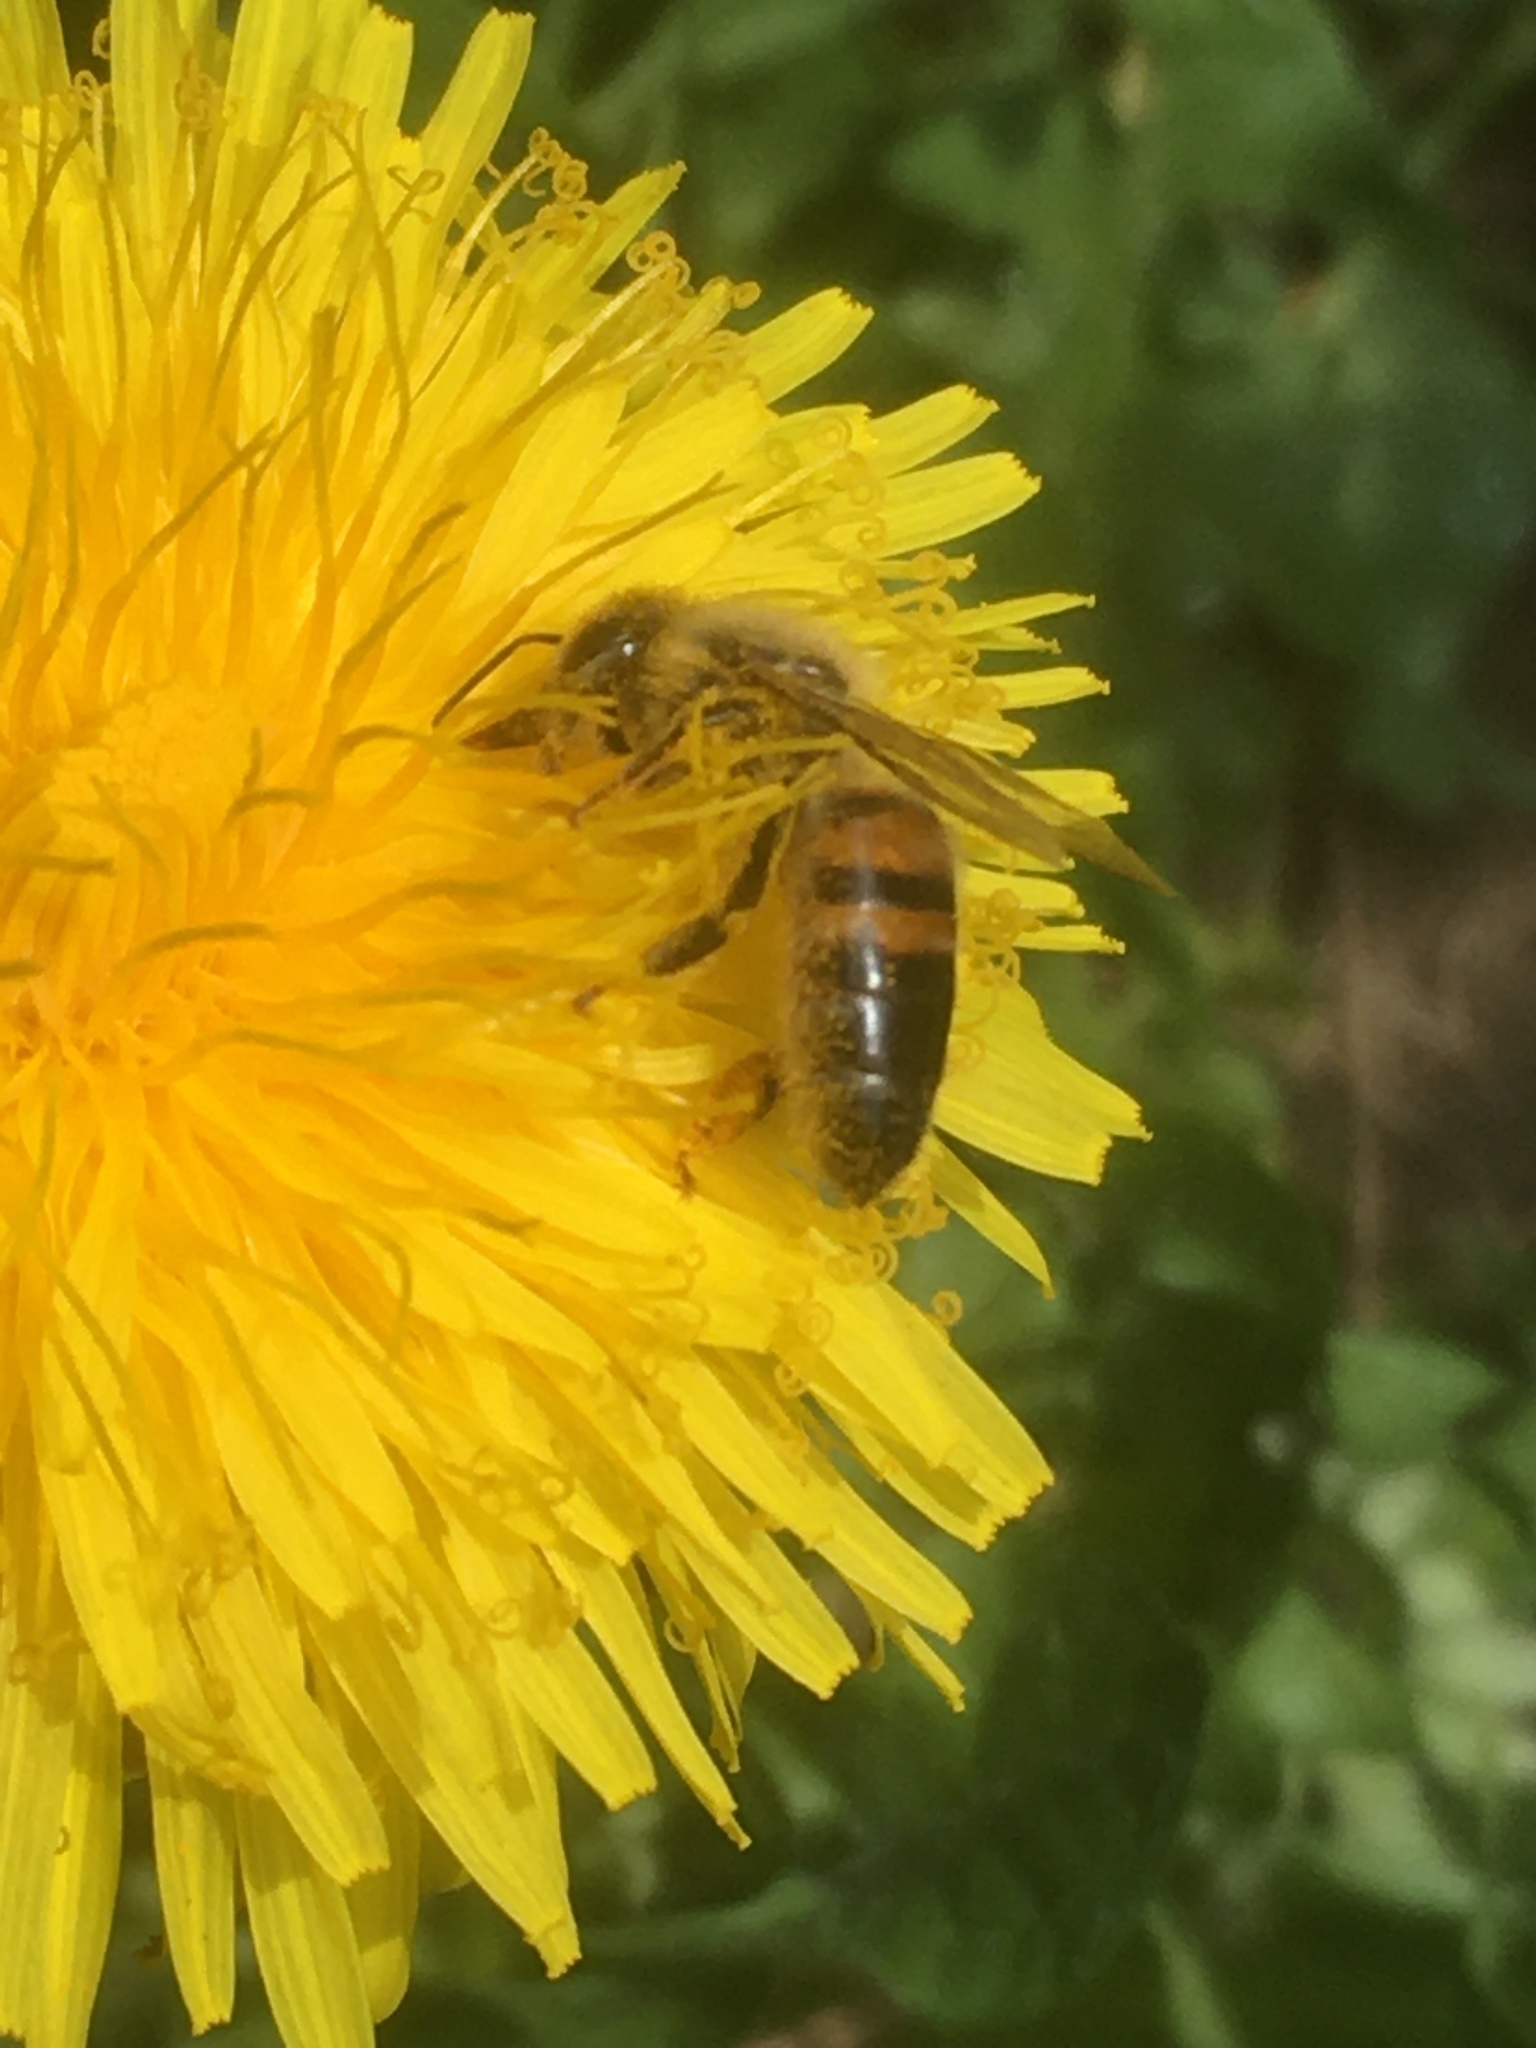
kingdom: Animalia
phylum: Arthropoda
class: Insecta
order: Hymenoptera
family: Apidae
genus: Apis
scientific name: Apis mellifera
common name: Honey bee
